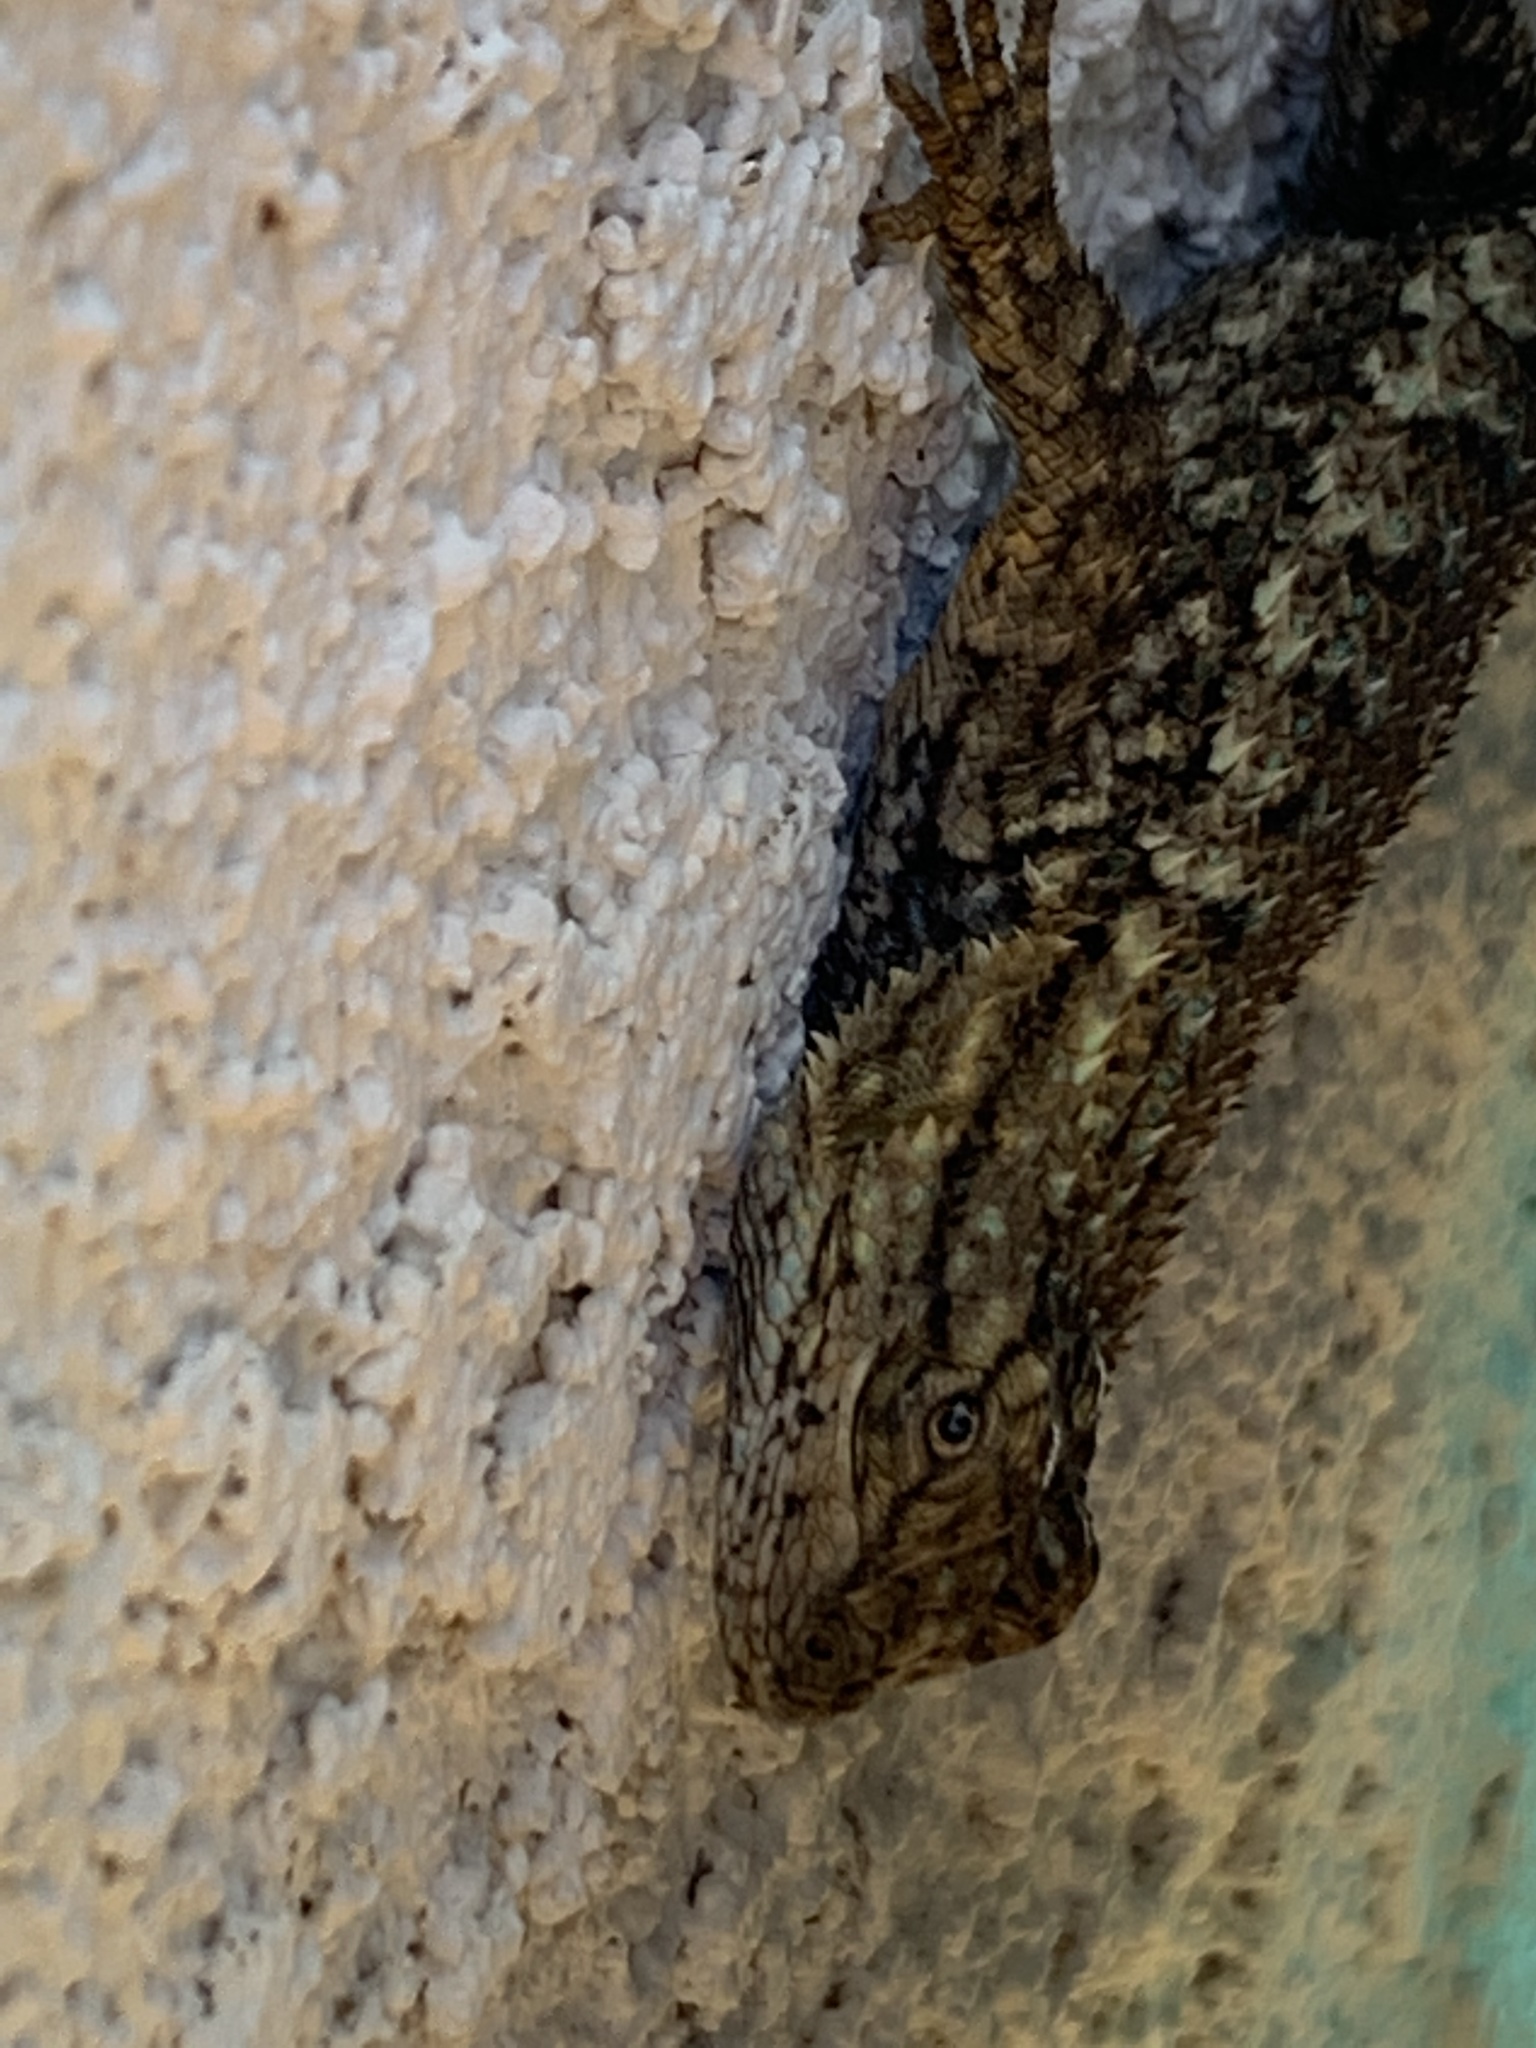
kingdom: Animalia
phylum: Chordata
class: Squamata
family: Phrynosomatidae
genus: Sceloporus
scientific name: Sceloporus occidentalis
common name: Western fence lizard
